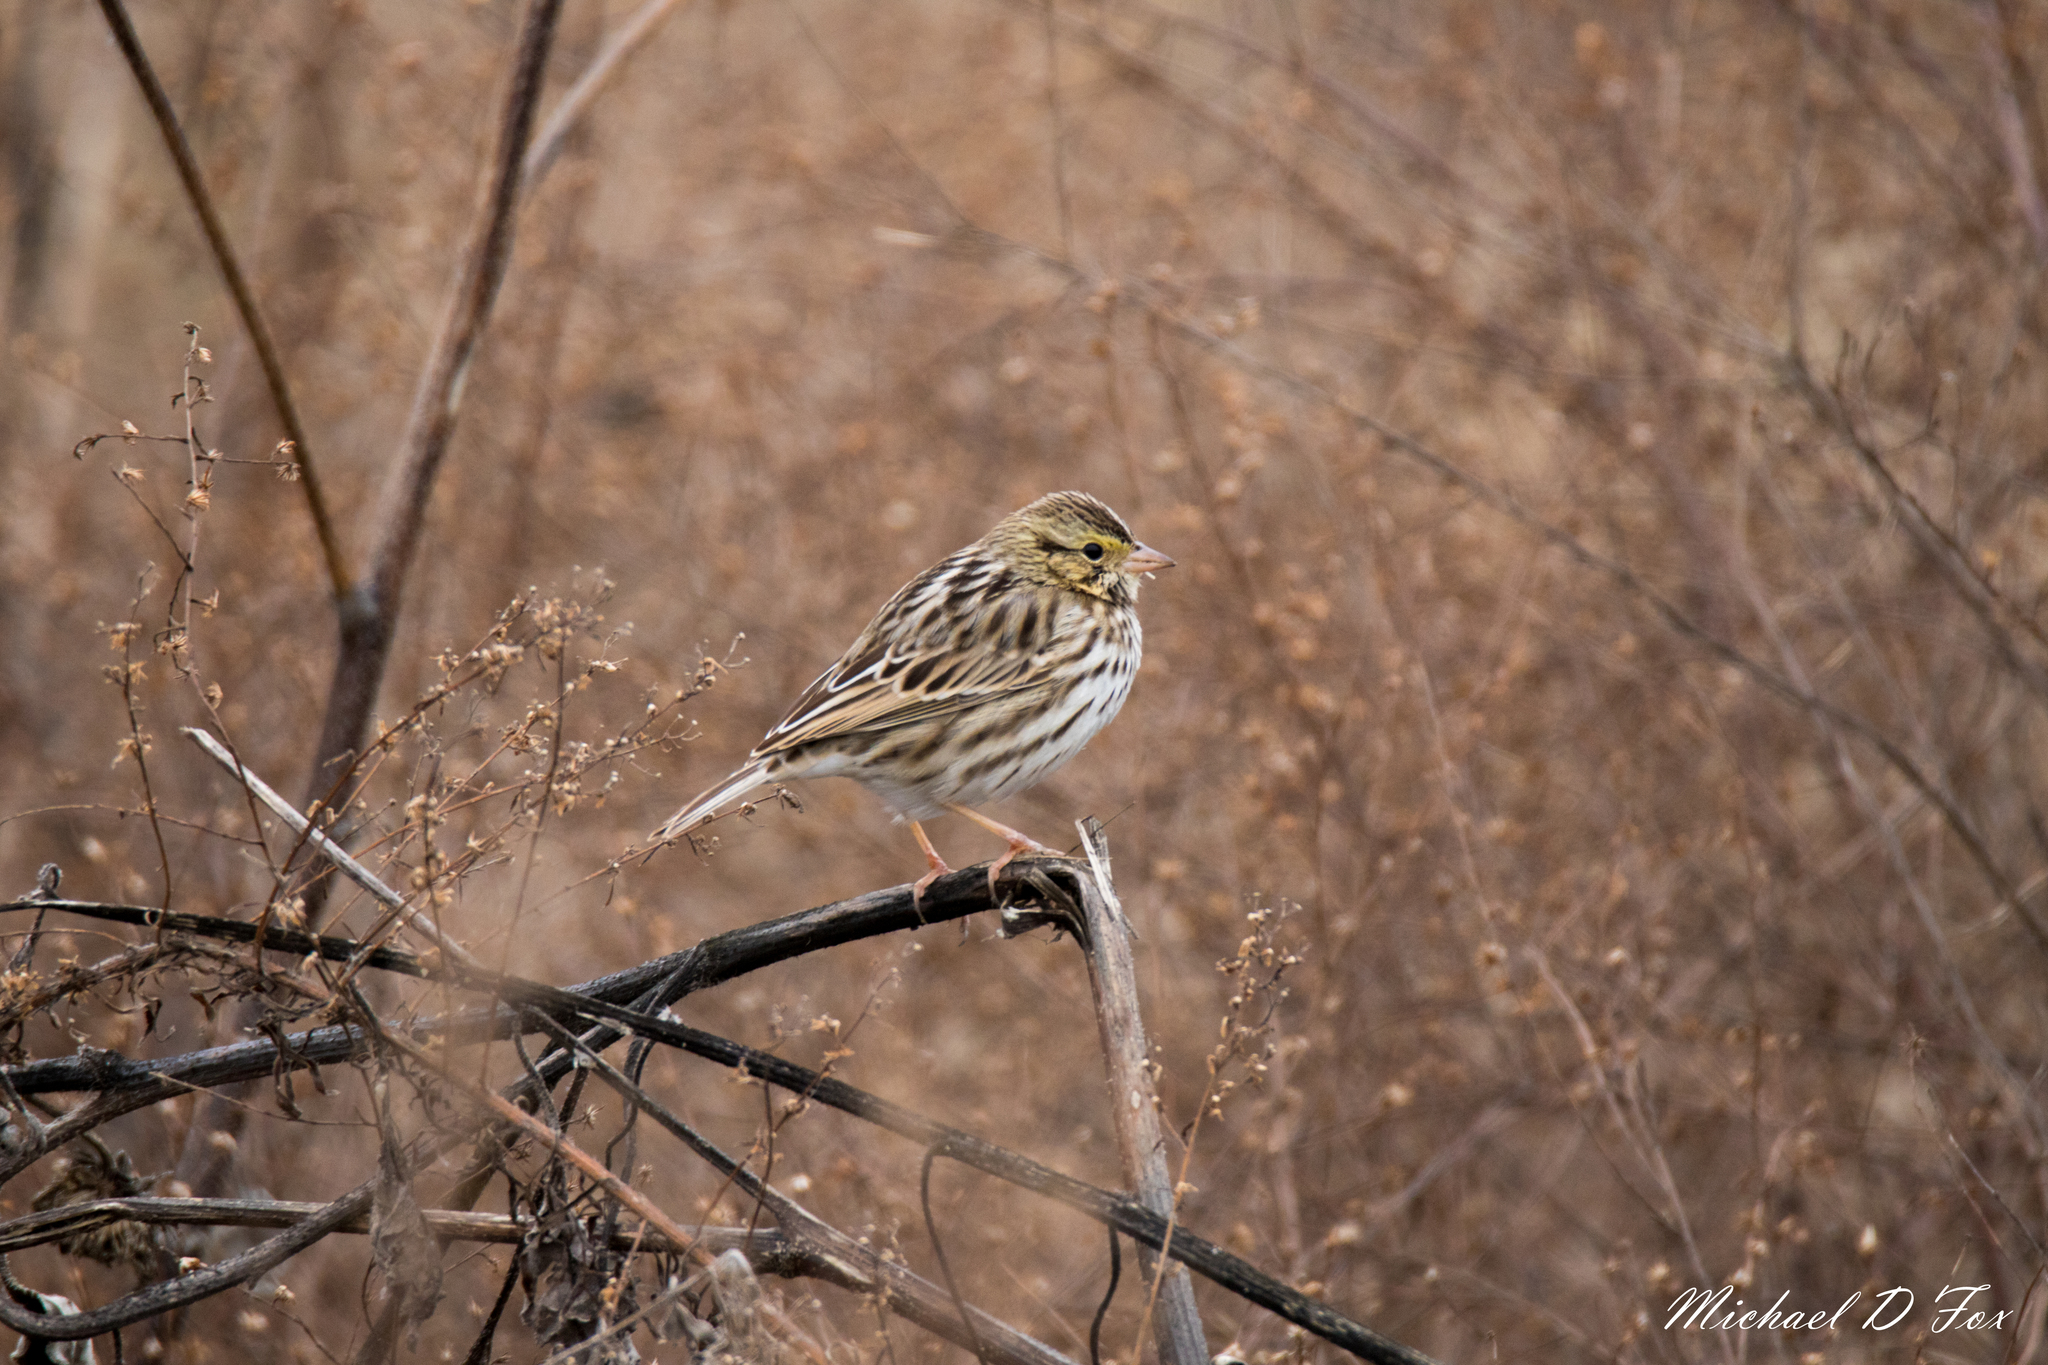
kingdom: Animalia
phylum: Chordata
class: Aves
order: Passeriformes
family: Passerellidae
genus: Passerculus
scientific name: Passerculus sandwichensis
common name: Savannah sparrow
